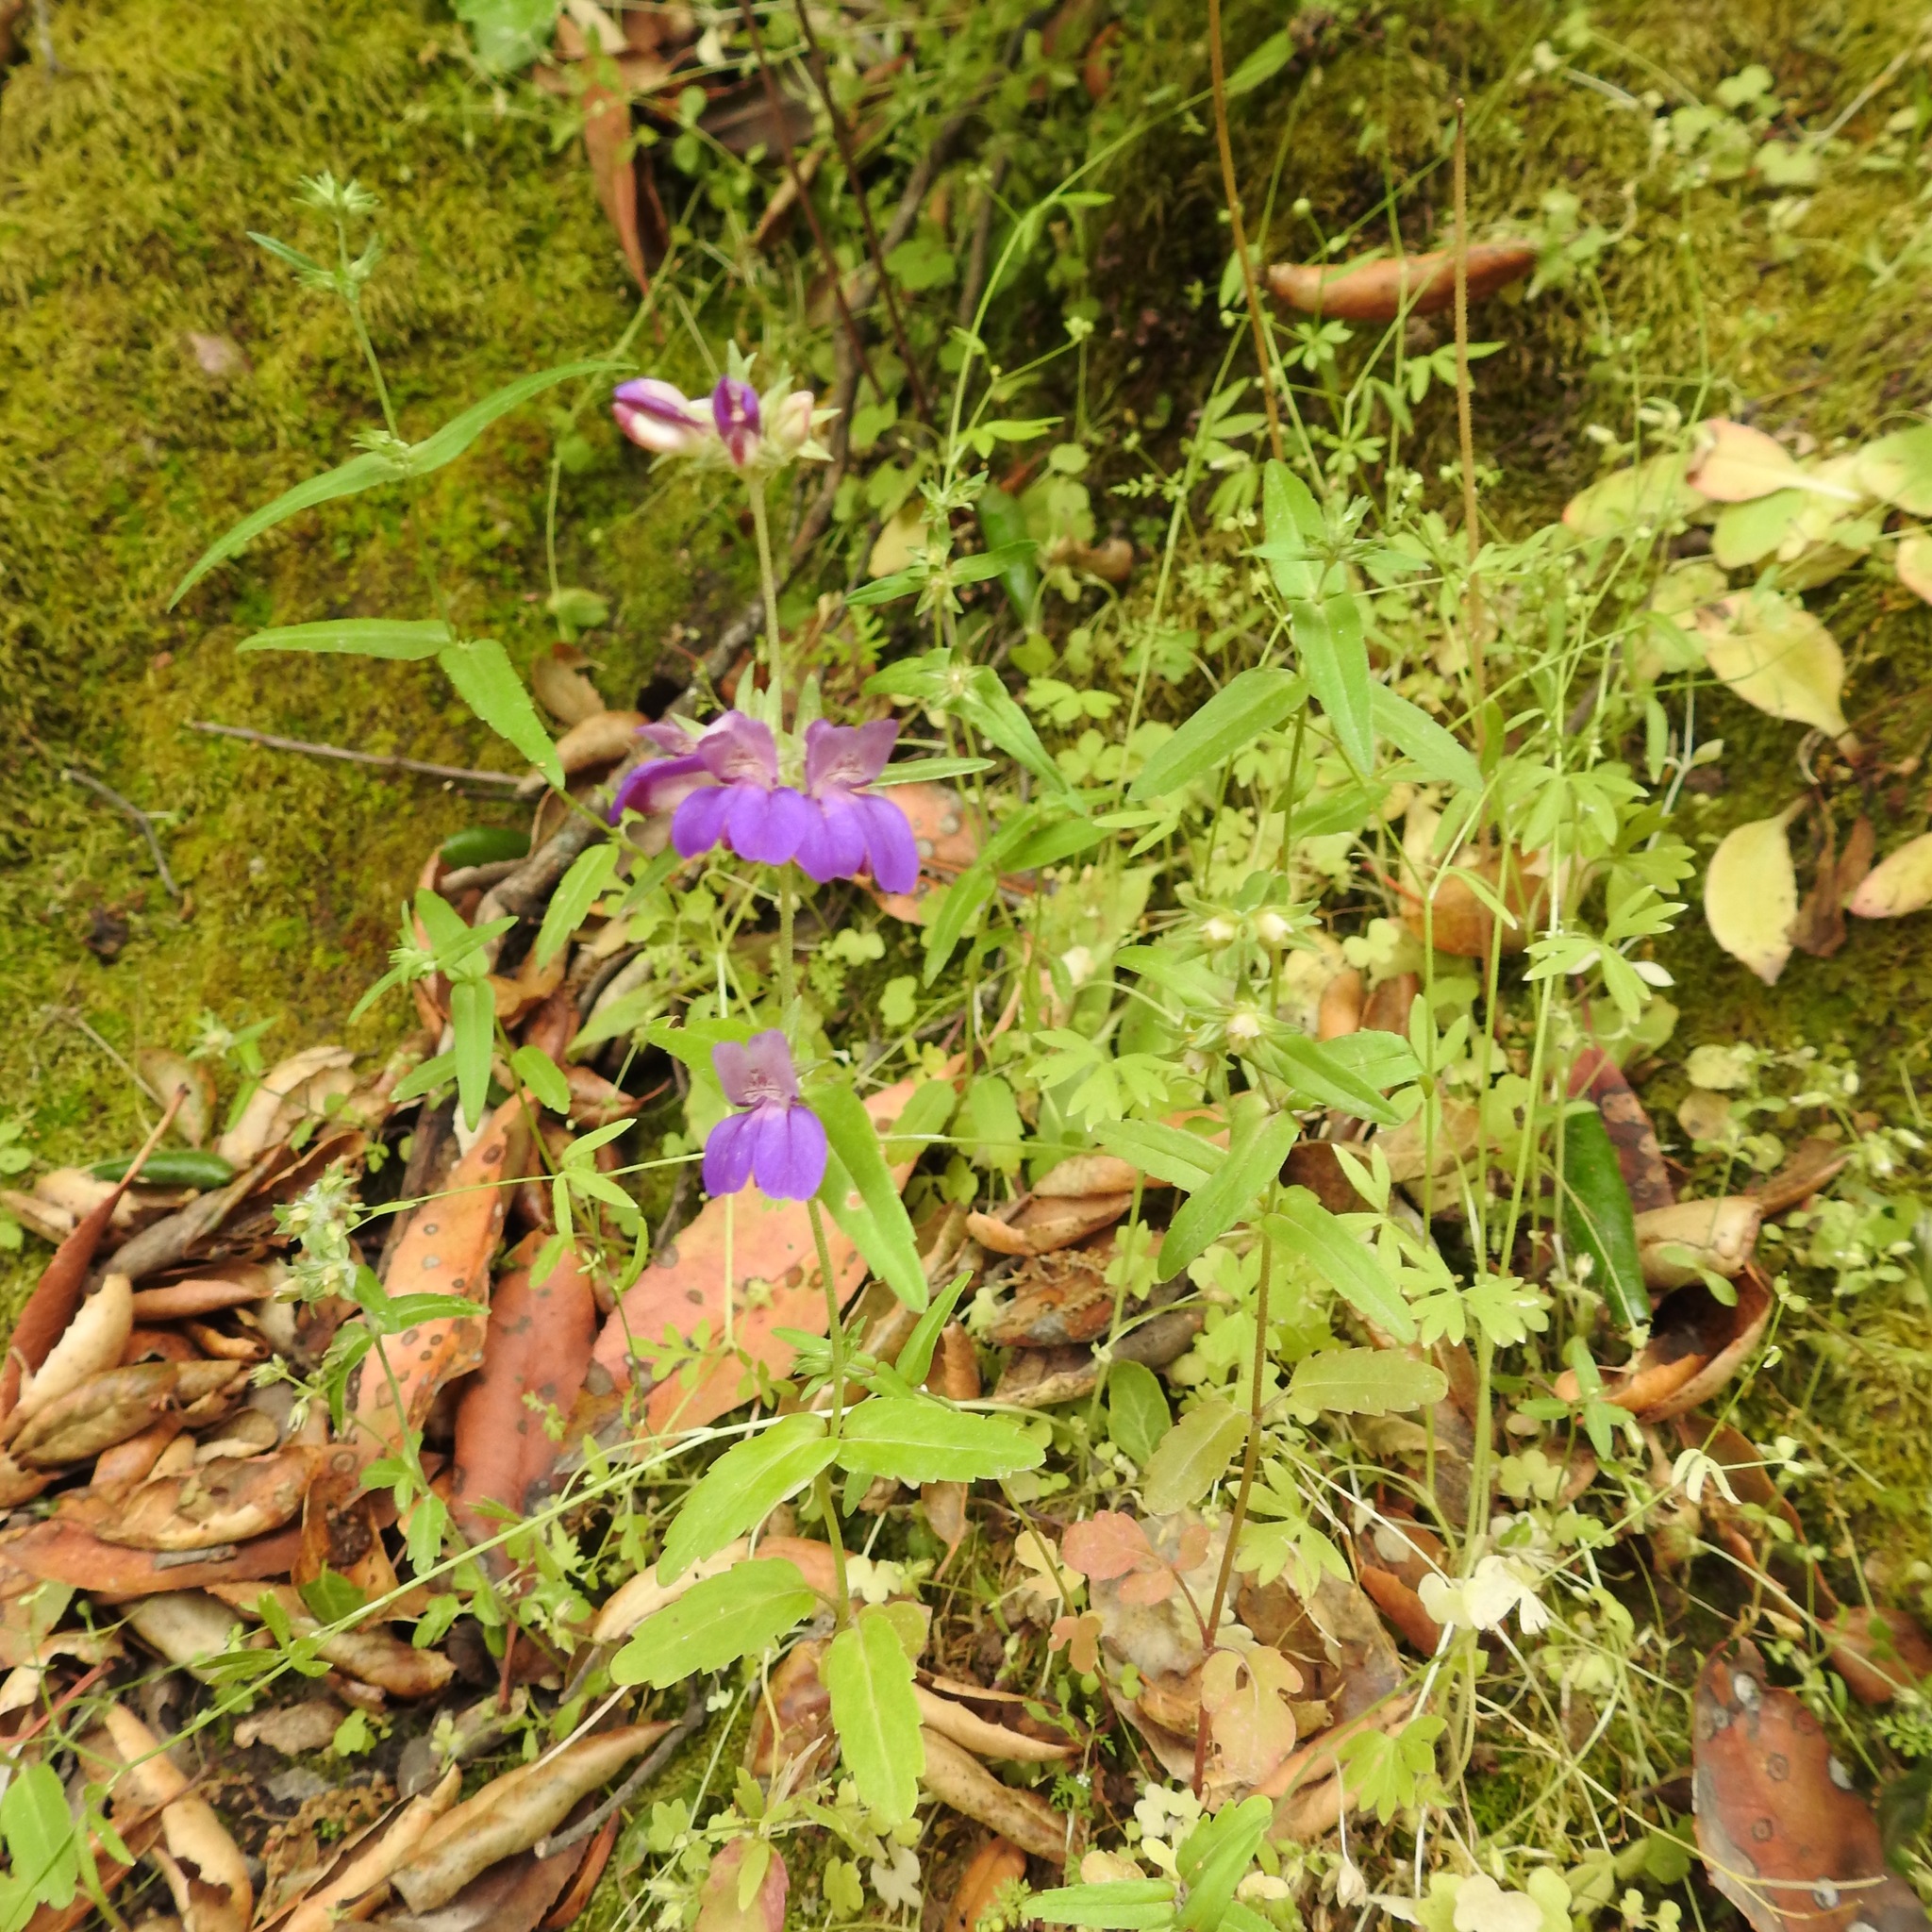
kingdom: Plantae
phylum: Tracheophyta
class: Magnoliopsida
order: Lamiales
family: Plantaginaceae
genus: Collinsia
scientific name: Collinsia heterophylla
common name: Chinese-houses
